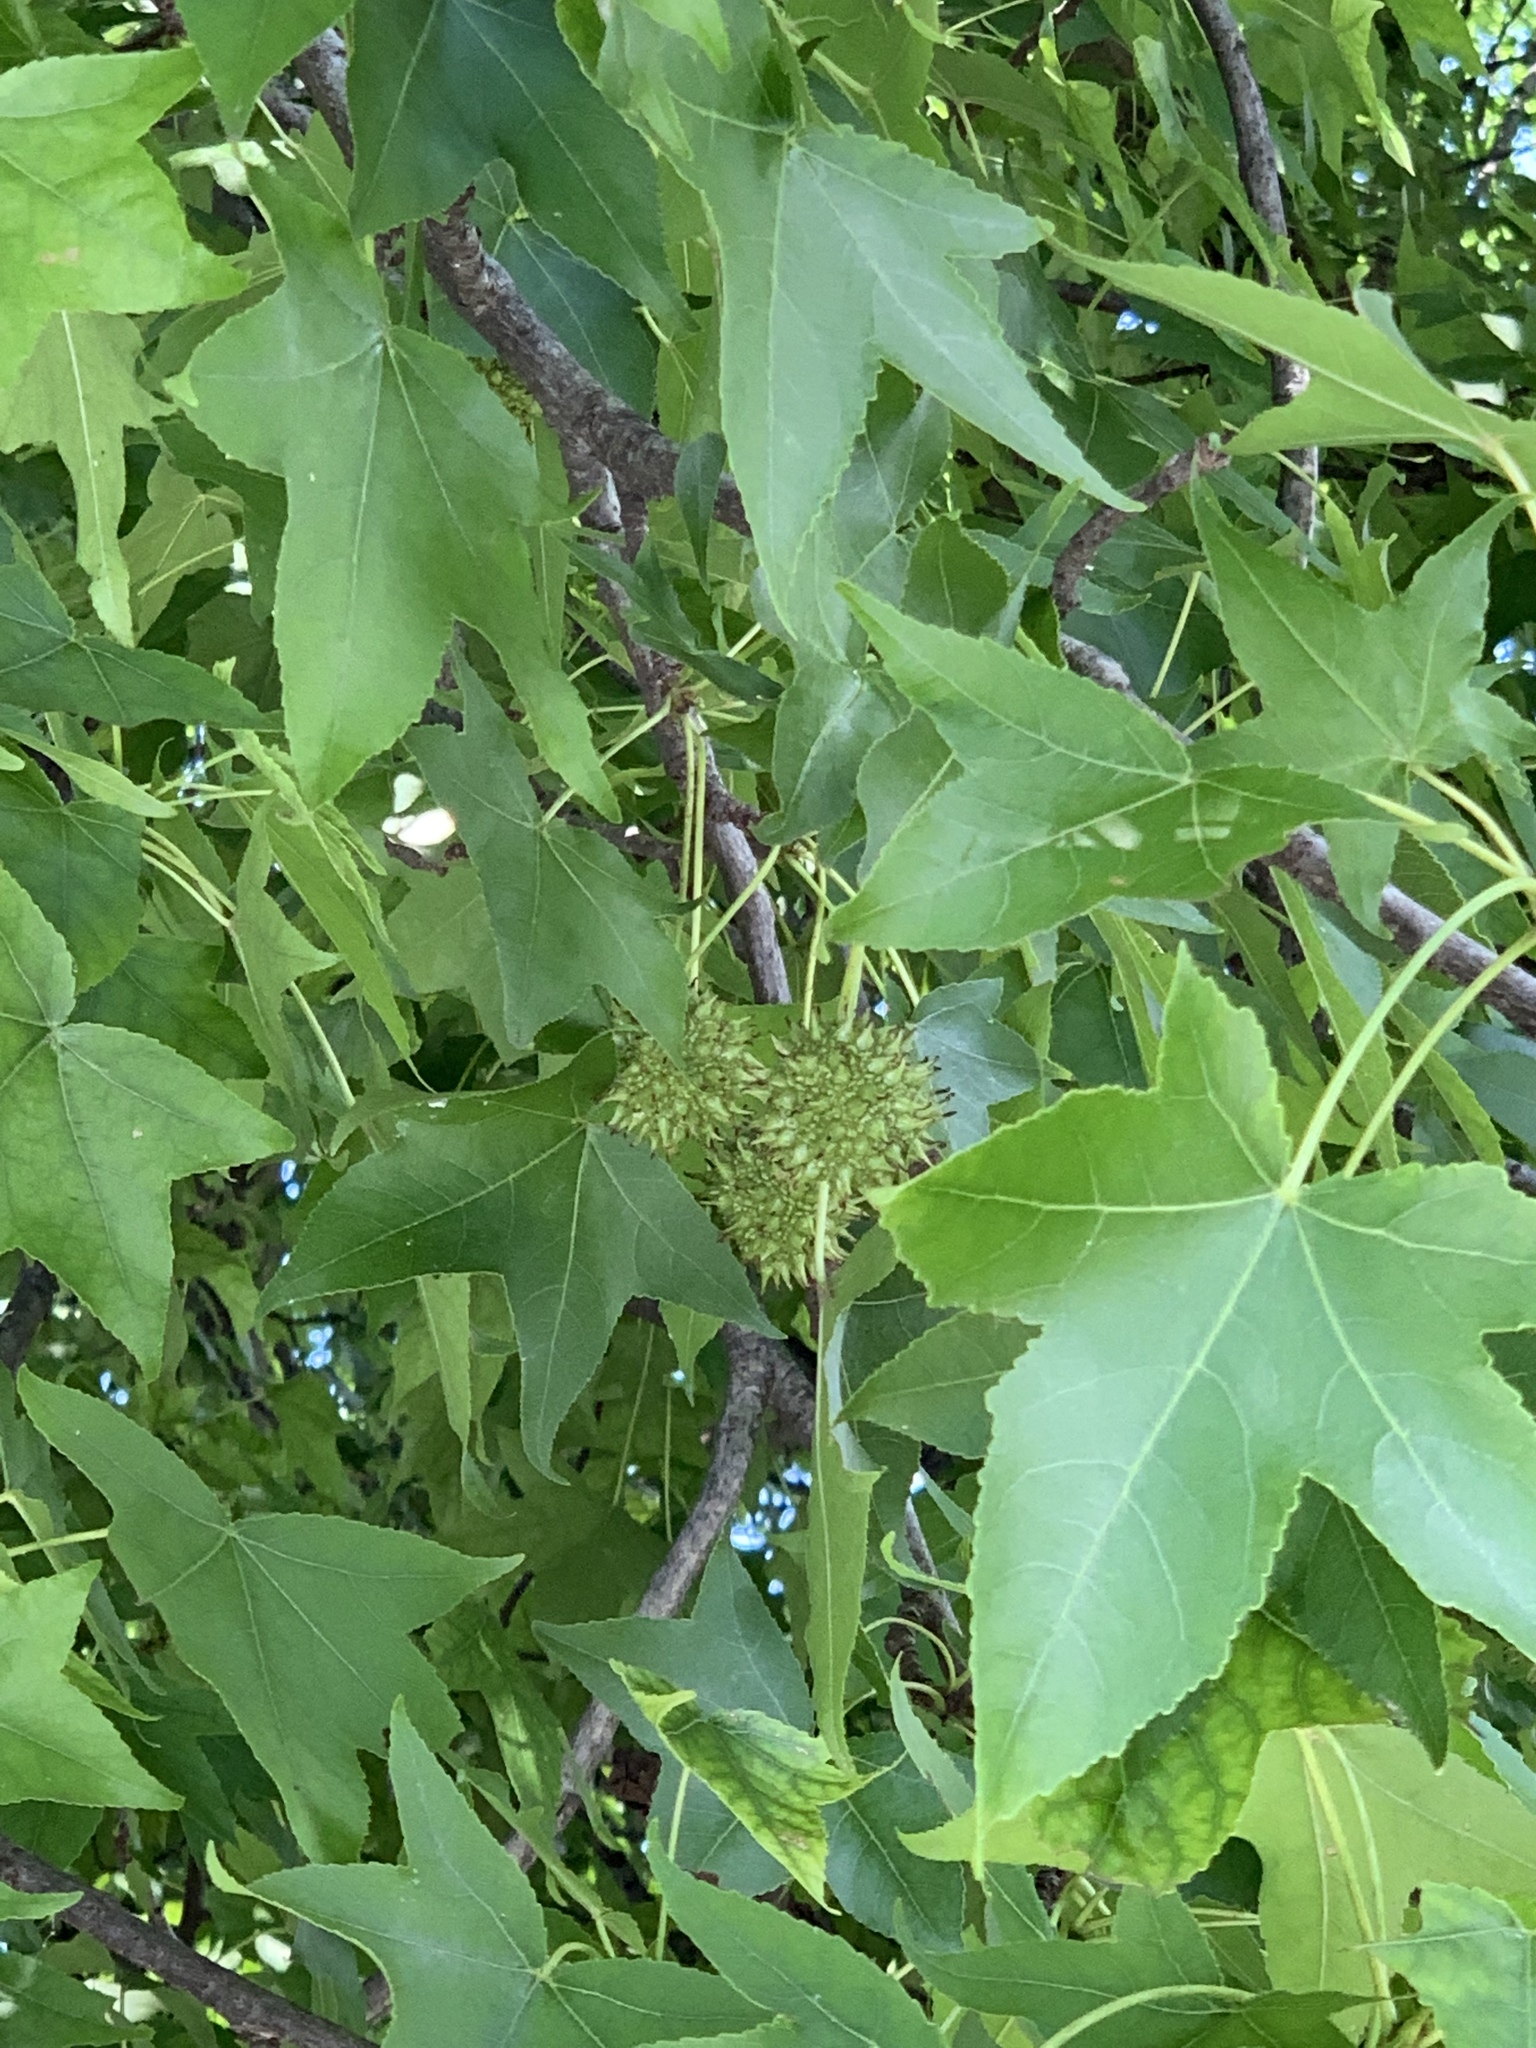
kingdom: Plantae
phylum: Tracheophyta
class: Magnoliopsida
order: Saxifragales
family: Altingiaceae
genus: Liquidambar
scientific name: Liquidambar styraciflua
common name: Sweet gum
